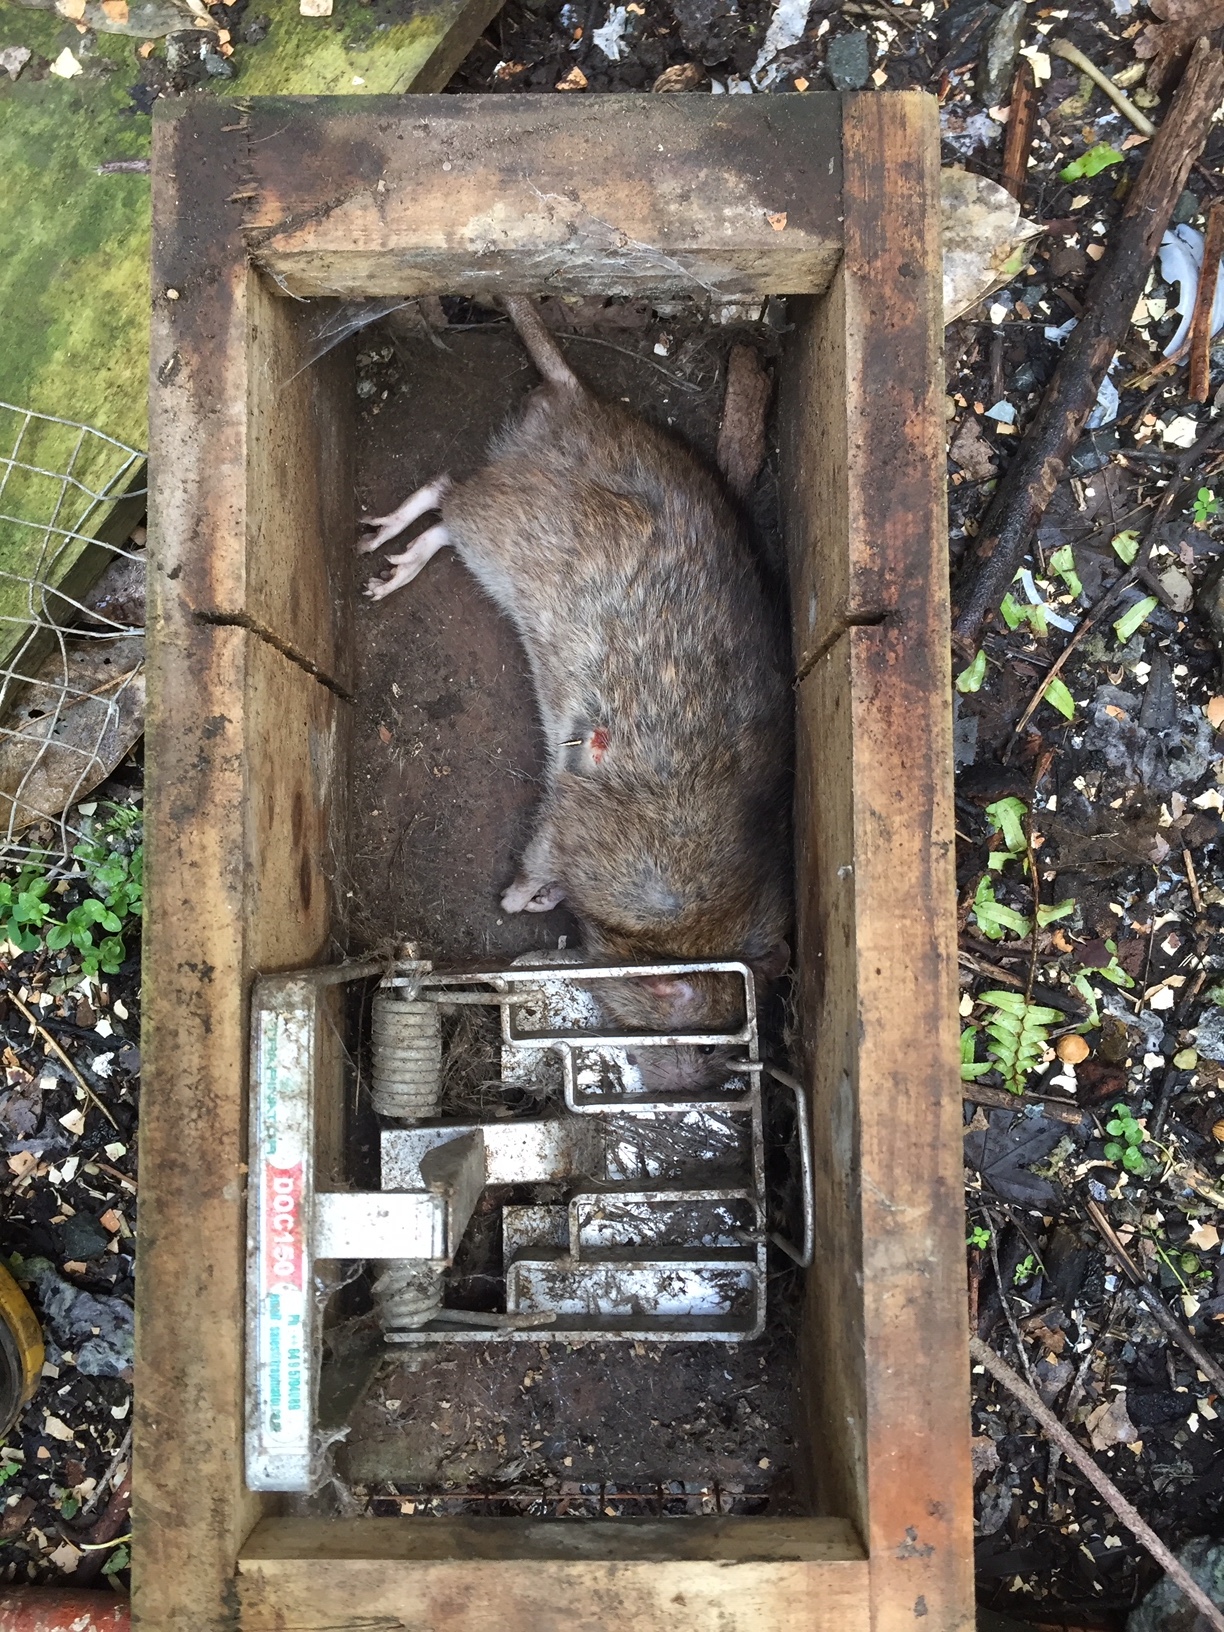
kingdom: Animalia
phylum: Chordata
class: Mammalia
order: Rodentia
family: Muridae
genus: Rattus
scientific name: Rattus norvegicus
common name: Brown rat
